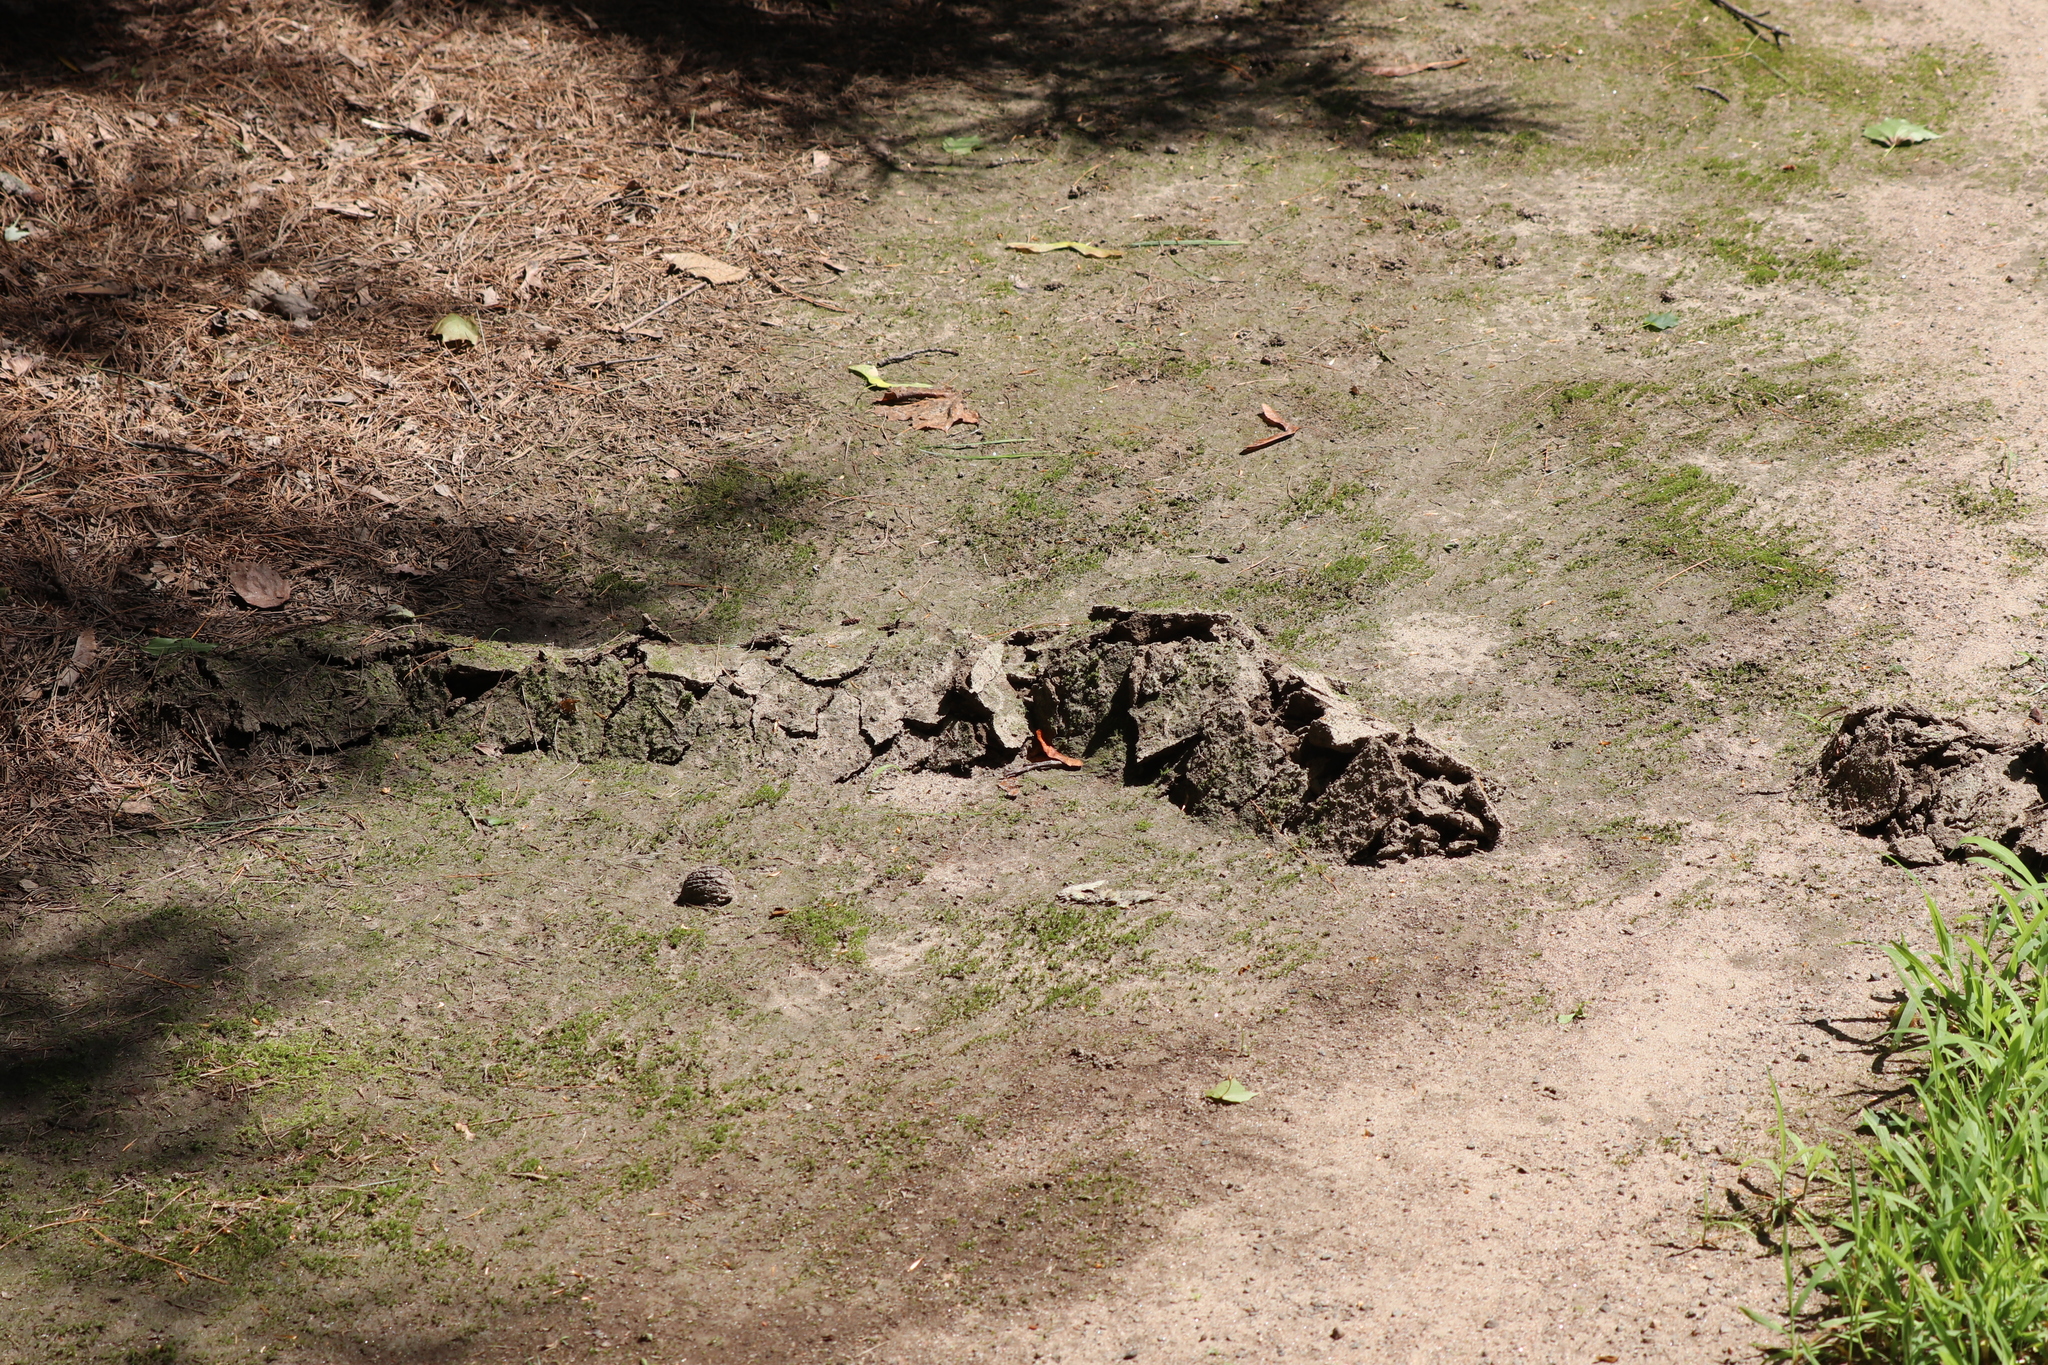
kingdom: Animalia
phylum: Chordata
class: Mammalia
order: Soricomorpha
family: Talpidae
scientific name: Talpidae
